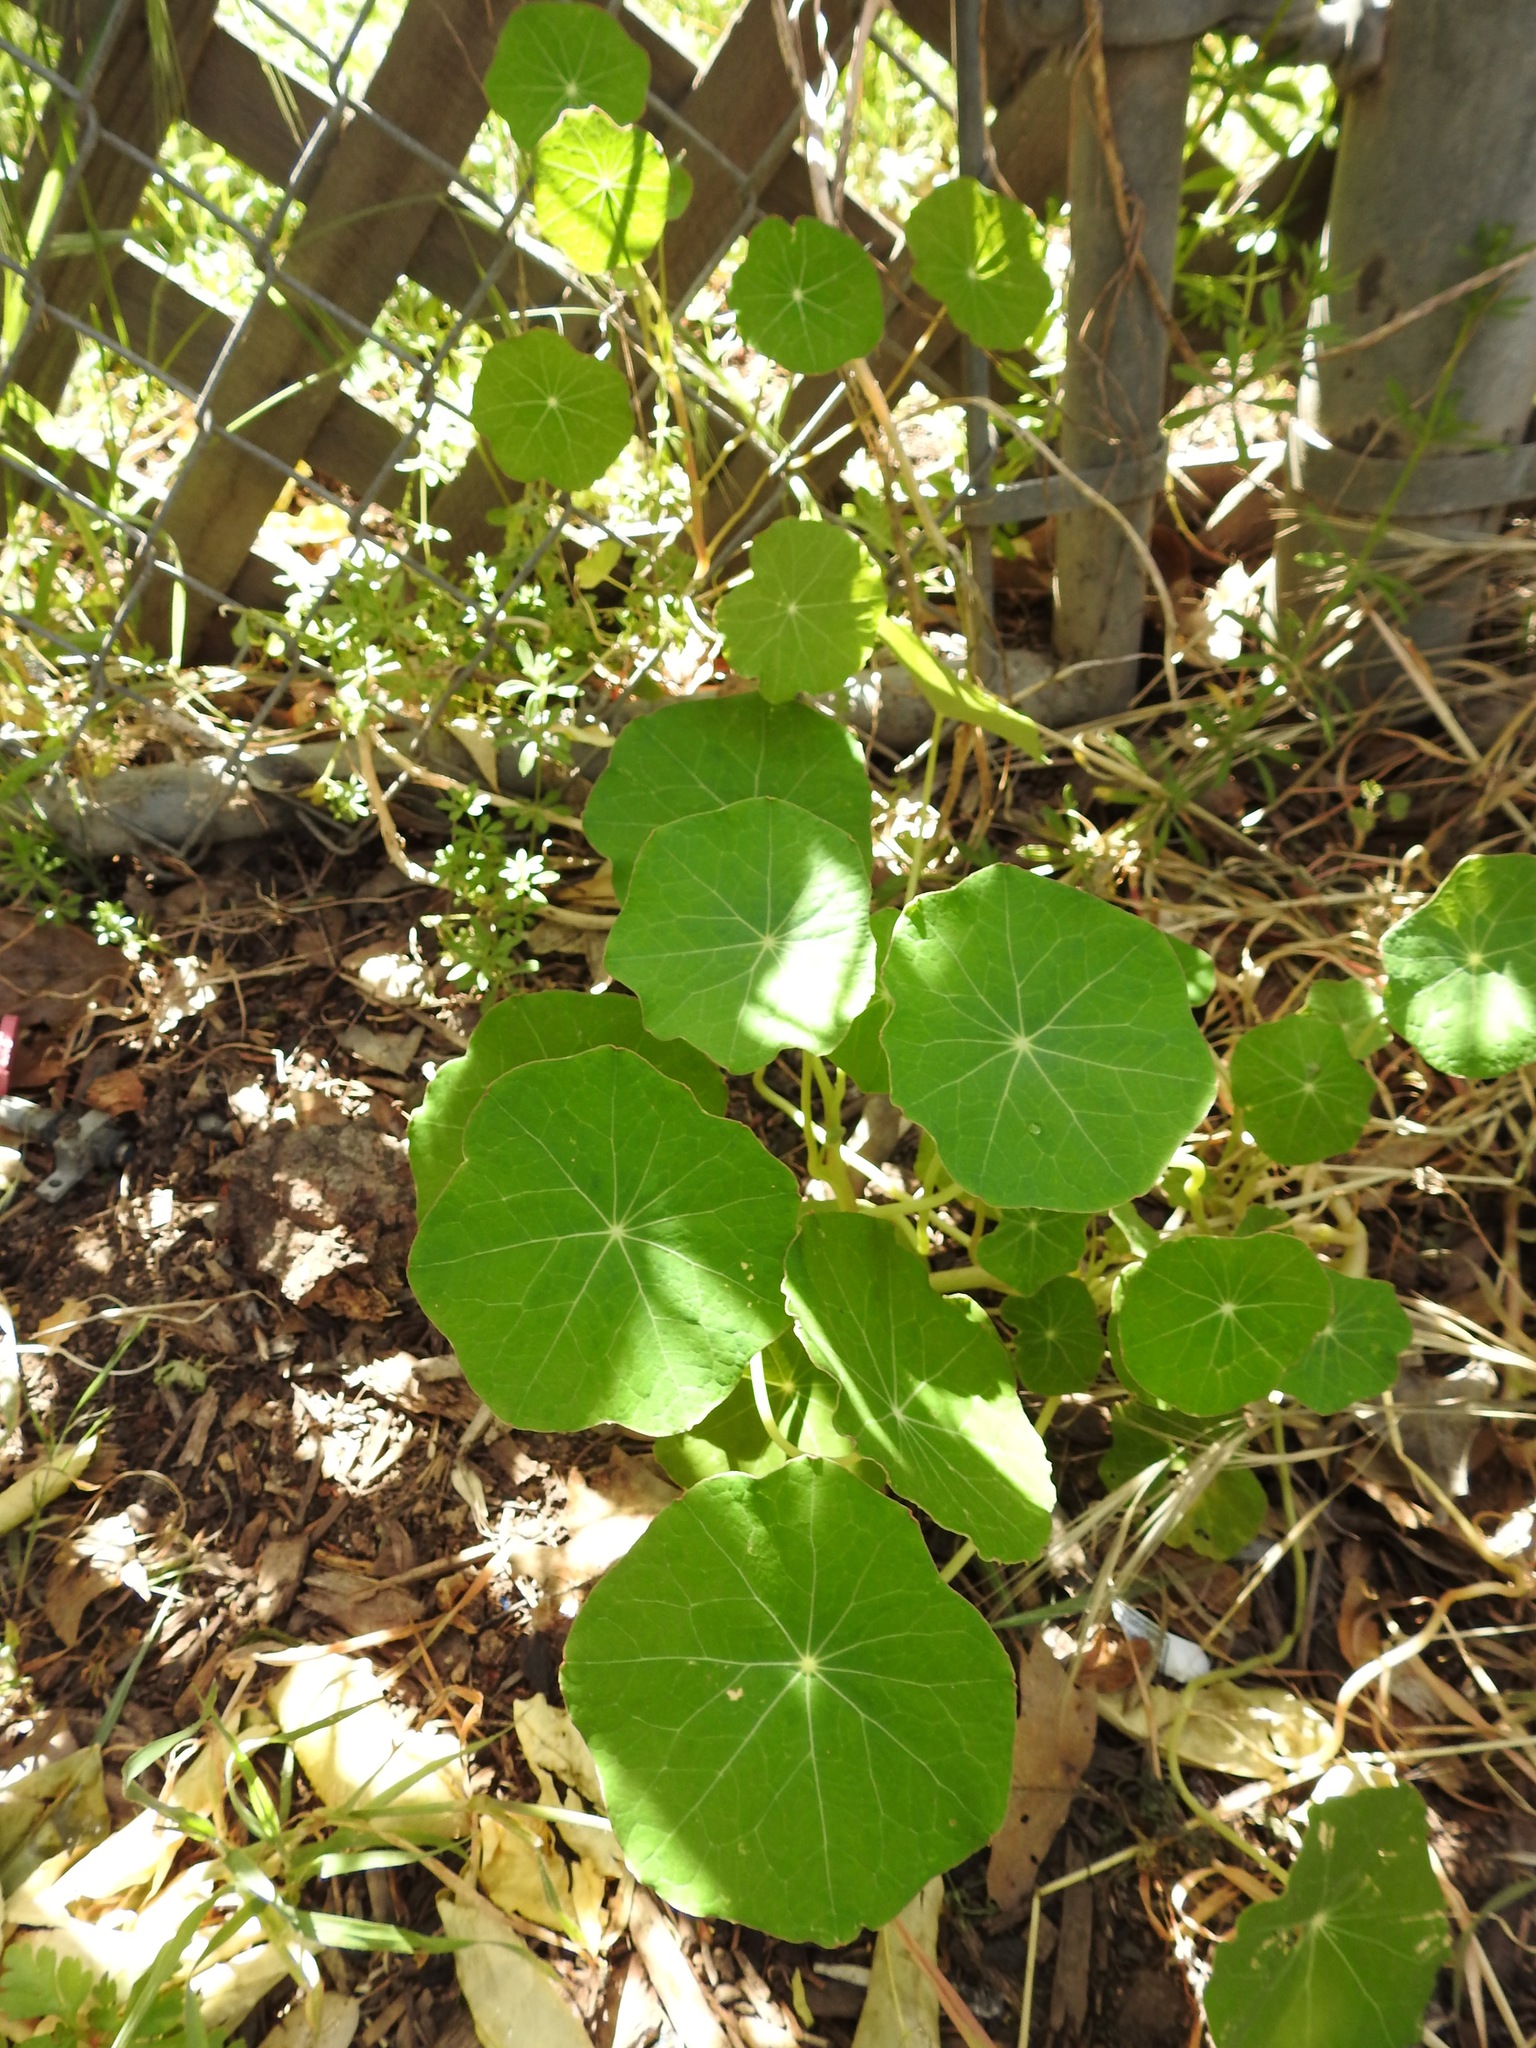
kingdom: Plantae
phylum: Tracheophyta
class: Magnoliopsida
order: Brassicales
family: Tropaeolaceae
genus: Tropaeolum
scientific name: Tropaeolum majus
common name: Nasturtium
